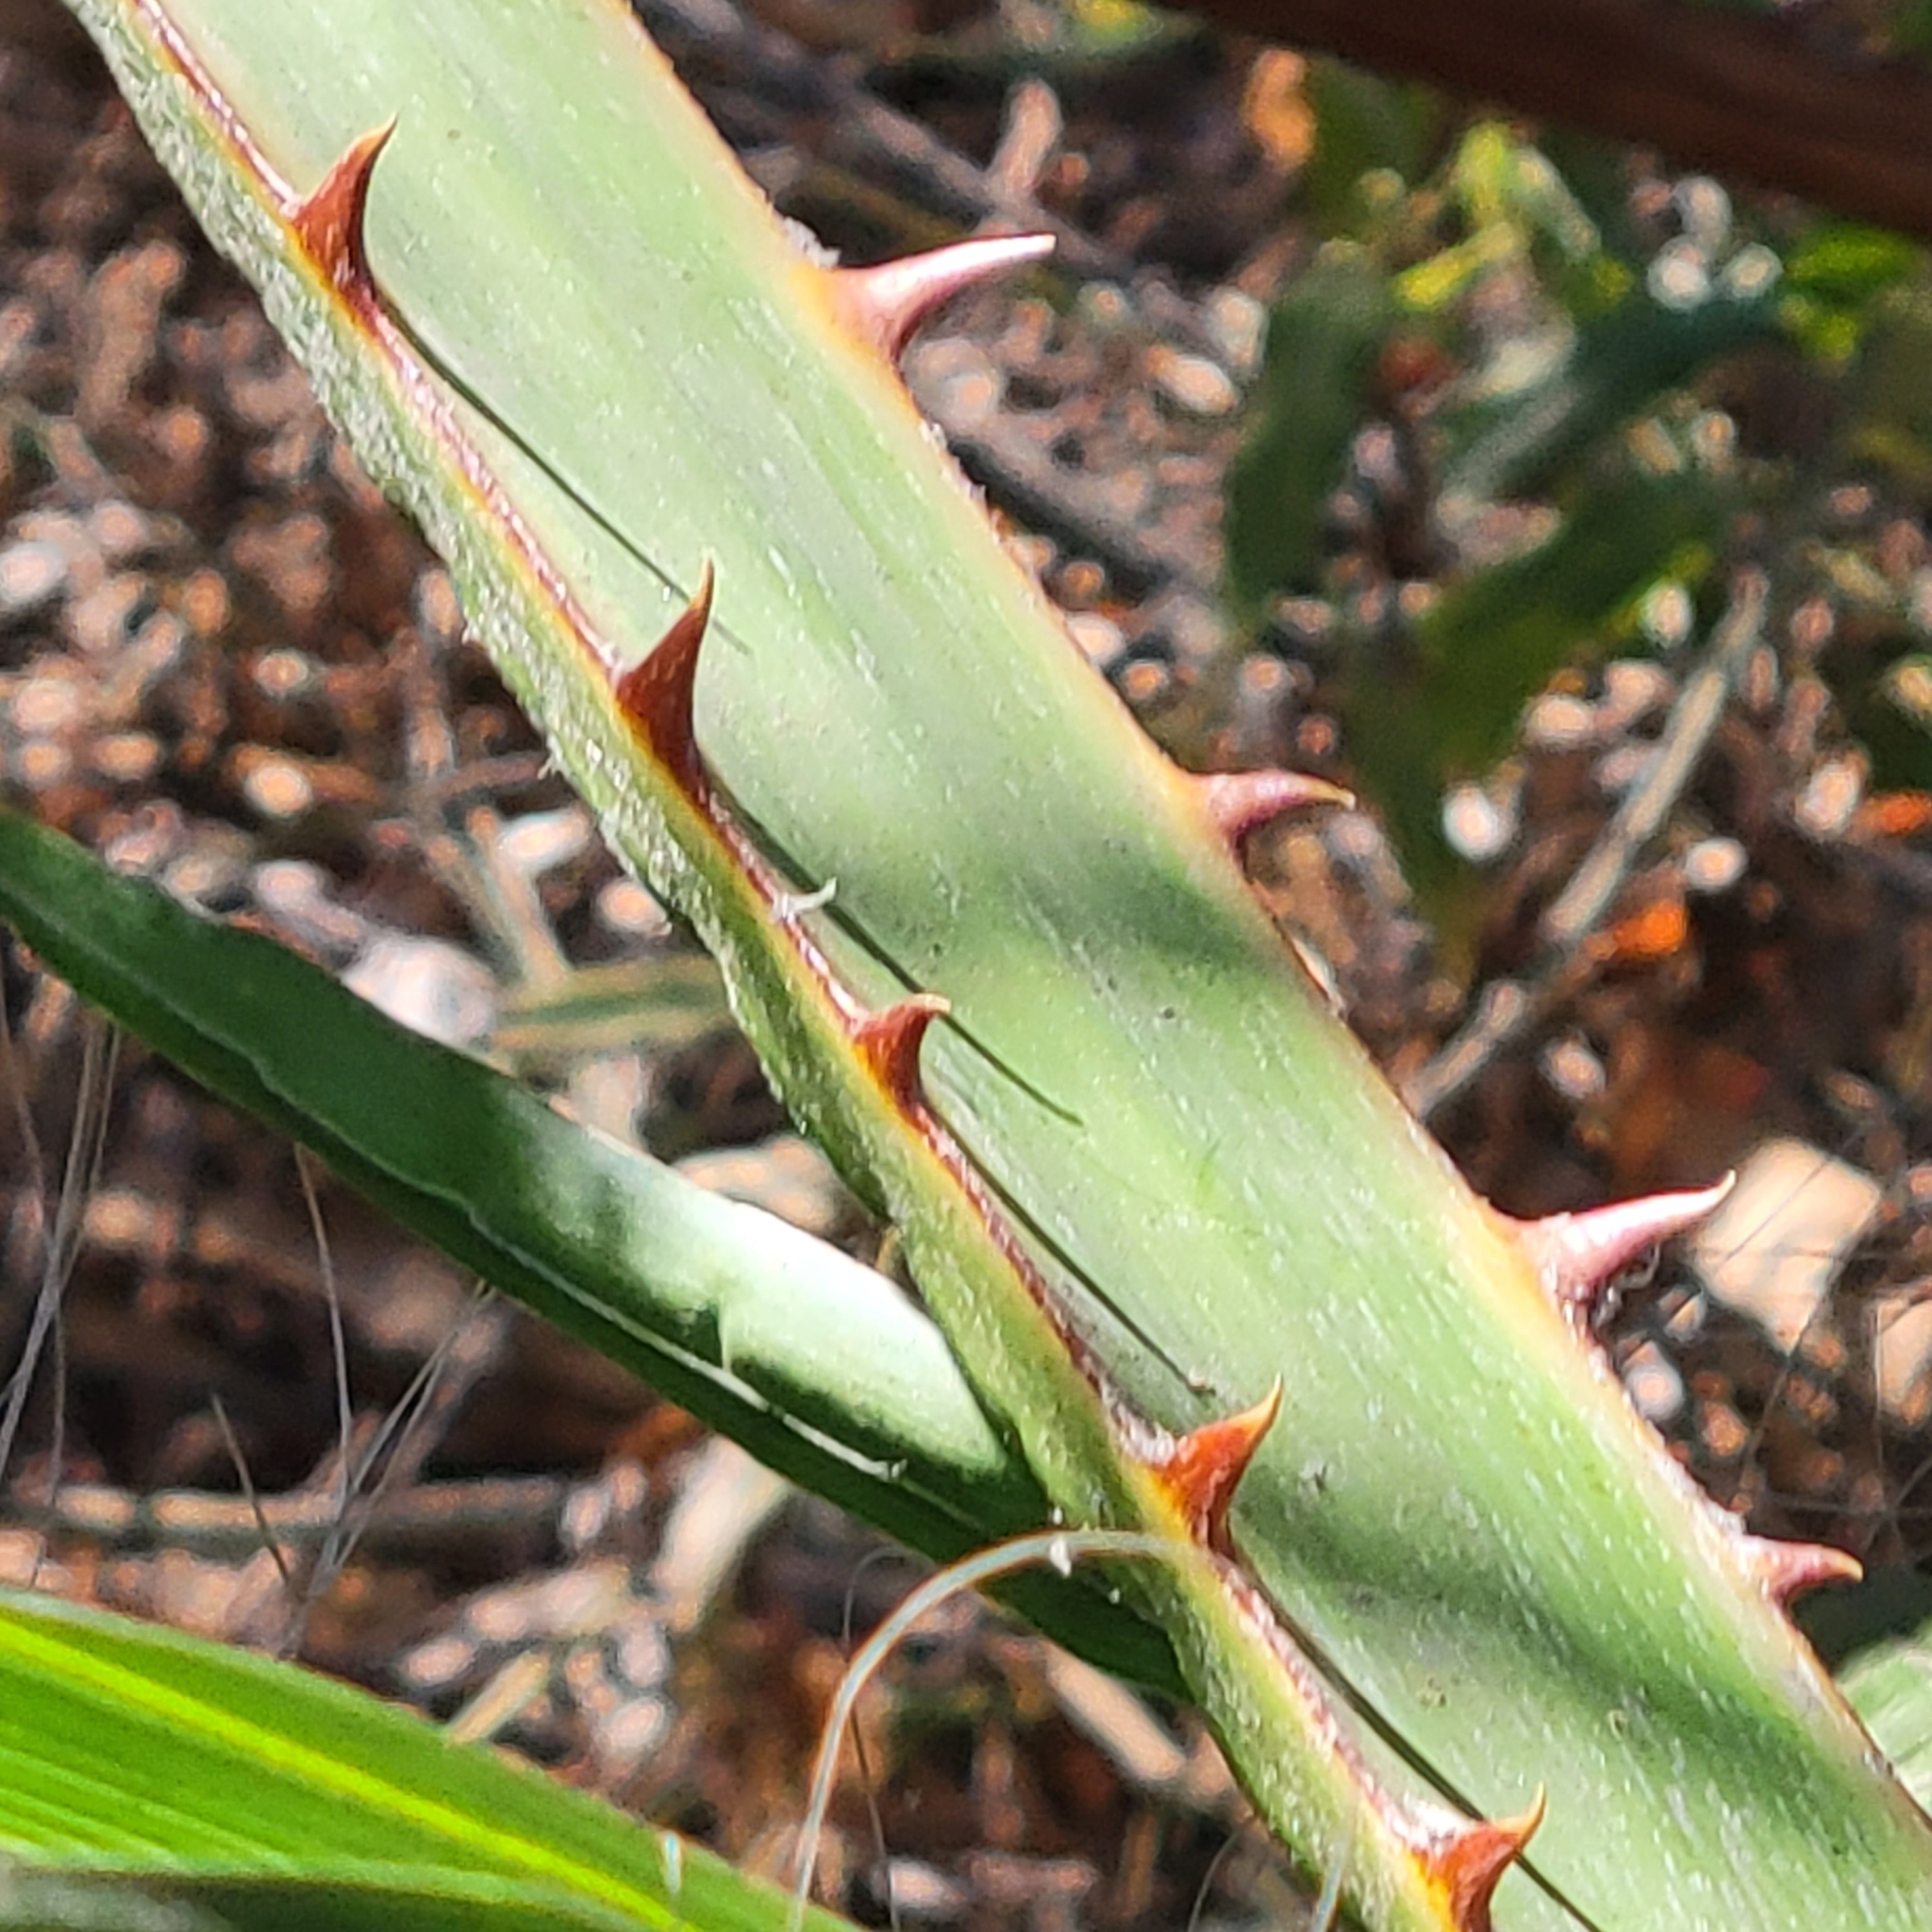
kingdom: Plantae
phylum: Tracheophyta
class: Liliopsida
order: Arecales
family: Arecaceae
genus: Washingtonia
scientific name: Washingtonia robusta
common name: Mexican fan palm
